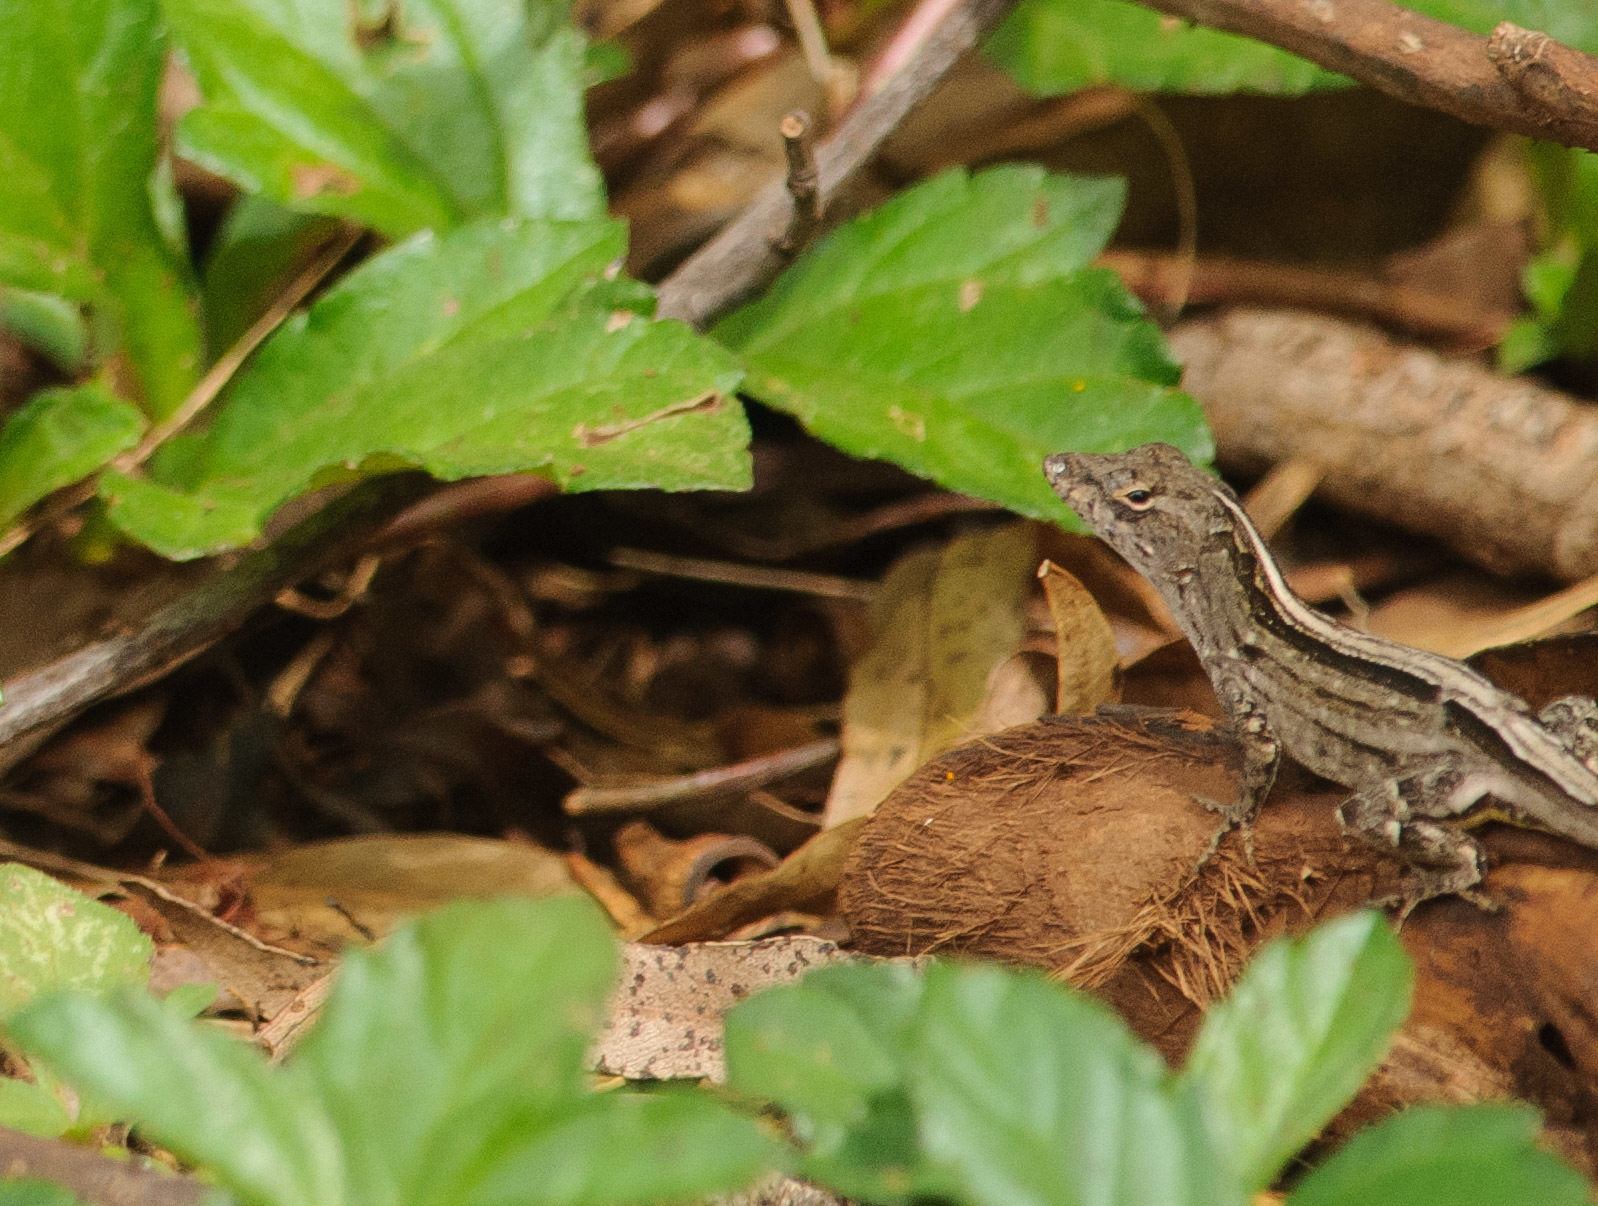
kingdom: Animalia
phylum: Chordata
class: Squamata
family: Dactyloidae
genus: Anolis
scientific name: Anolis sagrei
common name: Brown anole
